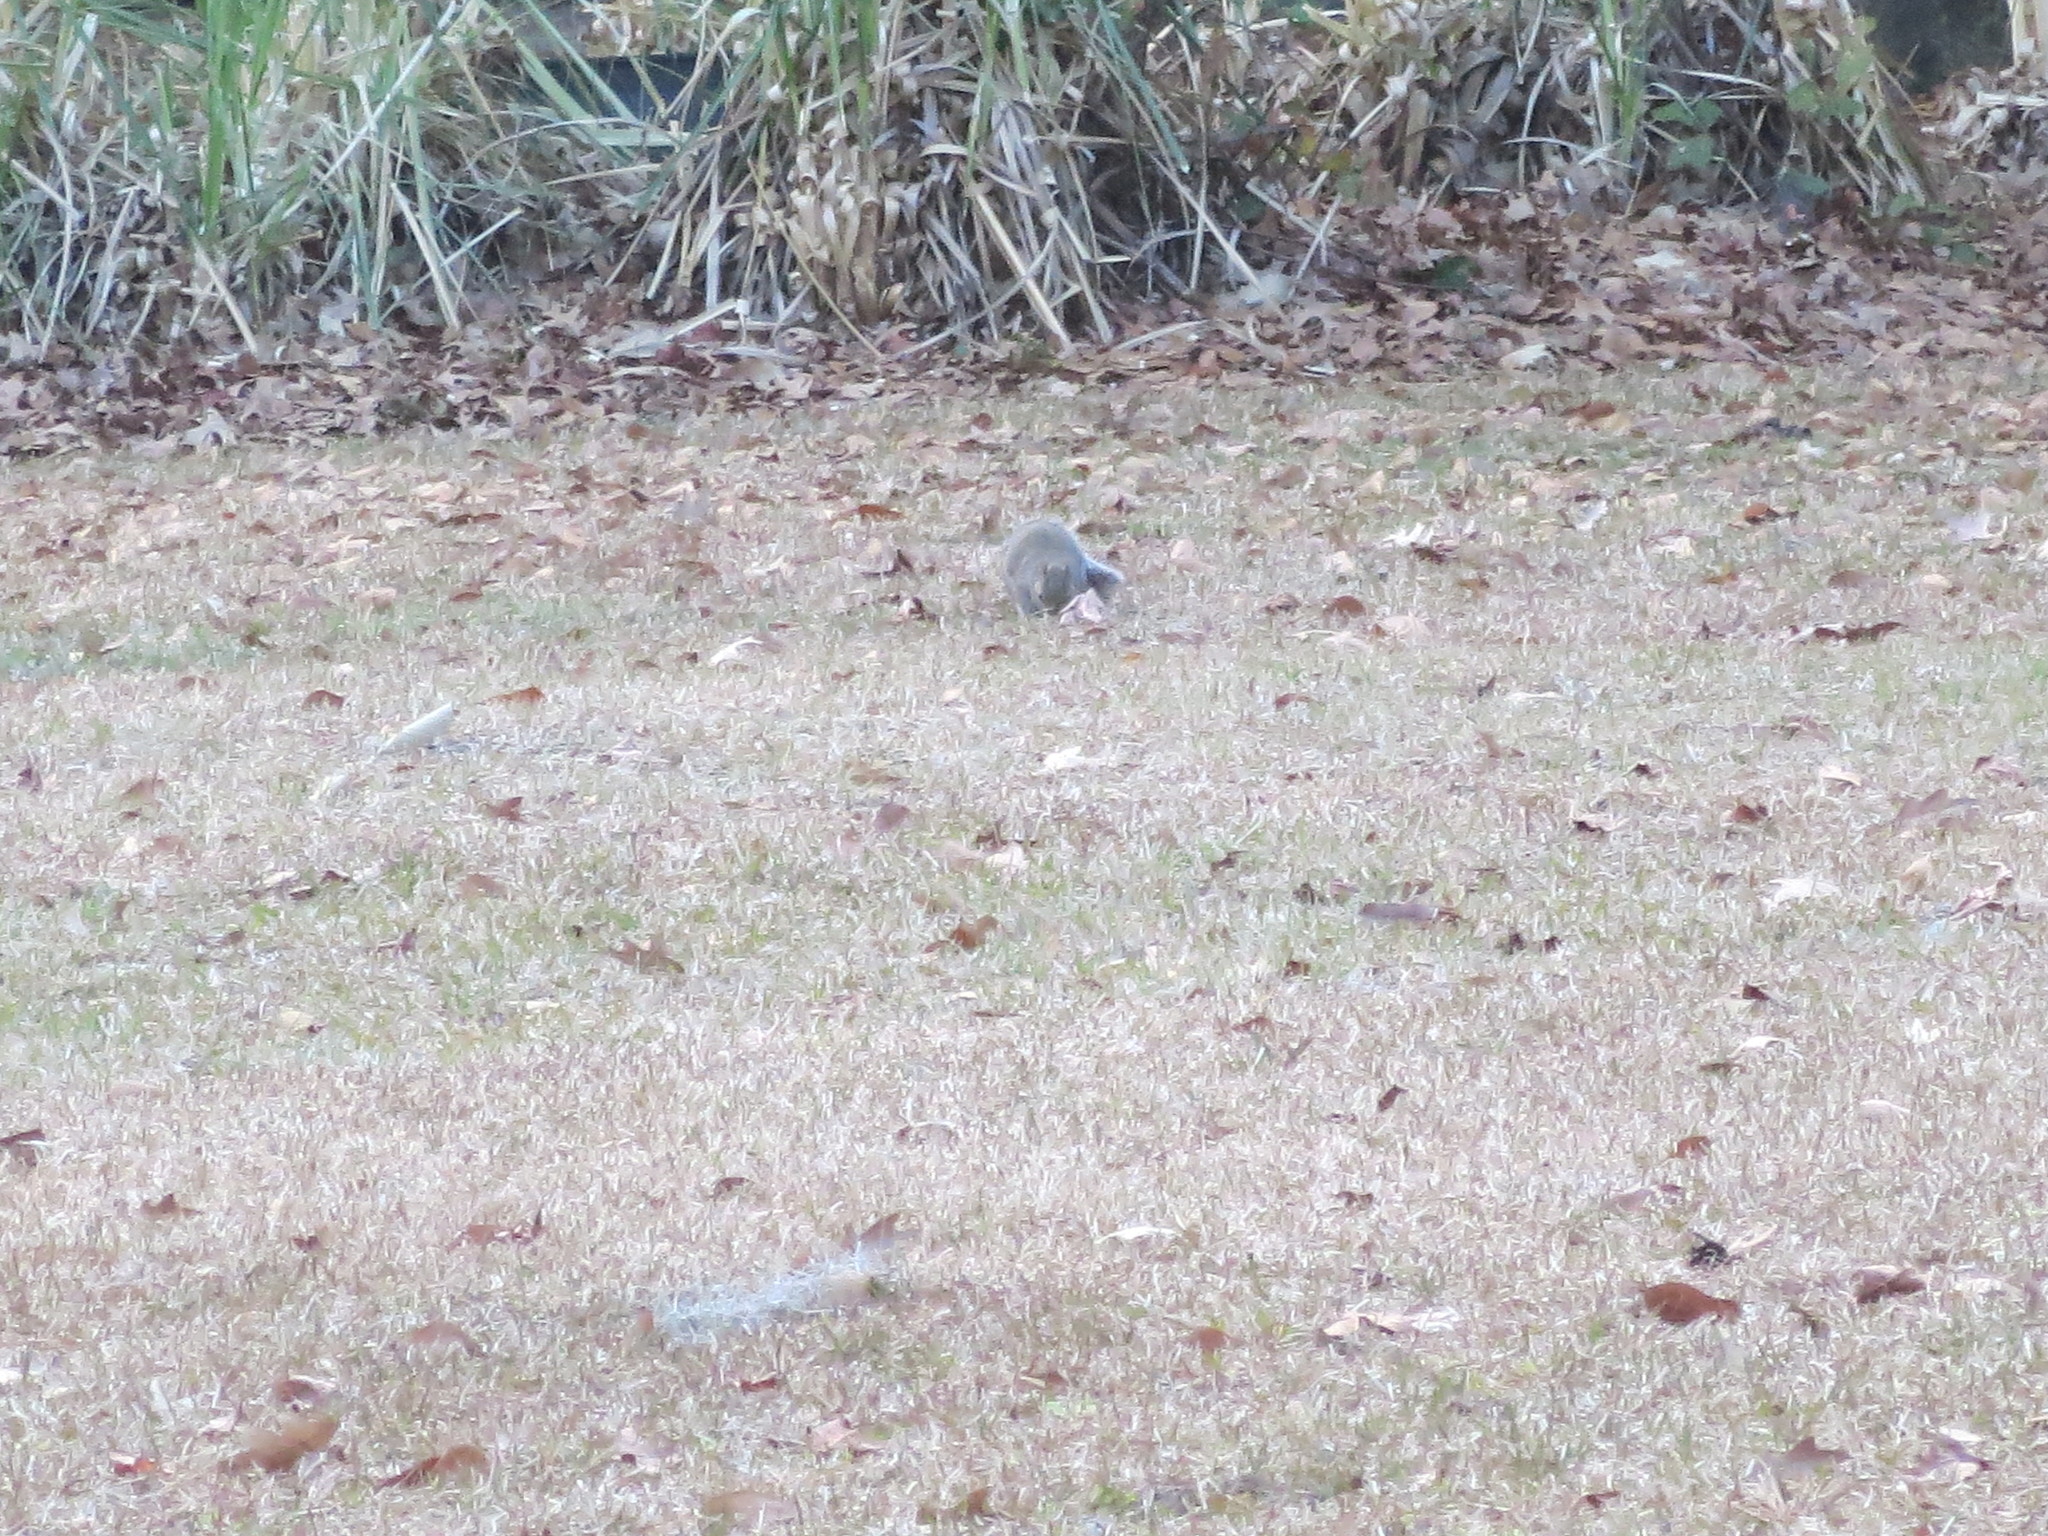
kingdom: Animalia
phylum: Chordata
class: Mammalia
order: Rodentia
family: Sciuridae
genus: Sciurus
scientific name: Sciurus carolinensis
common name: Eastern gray squirrel
